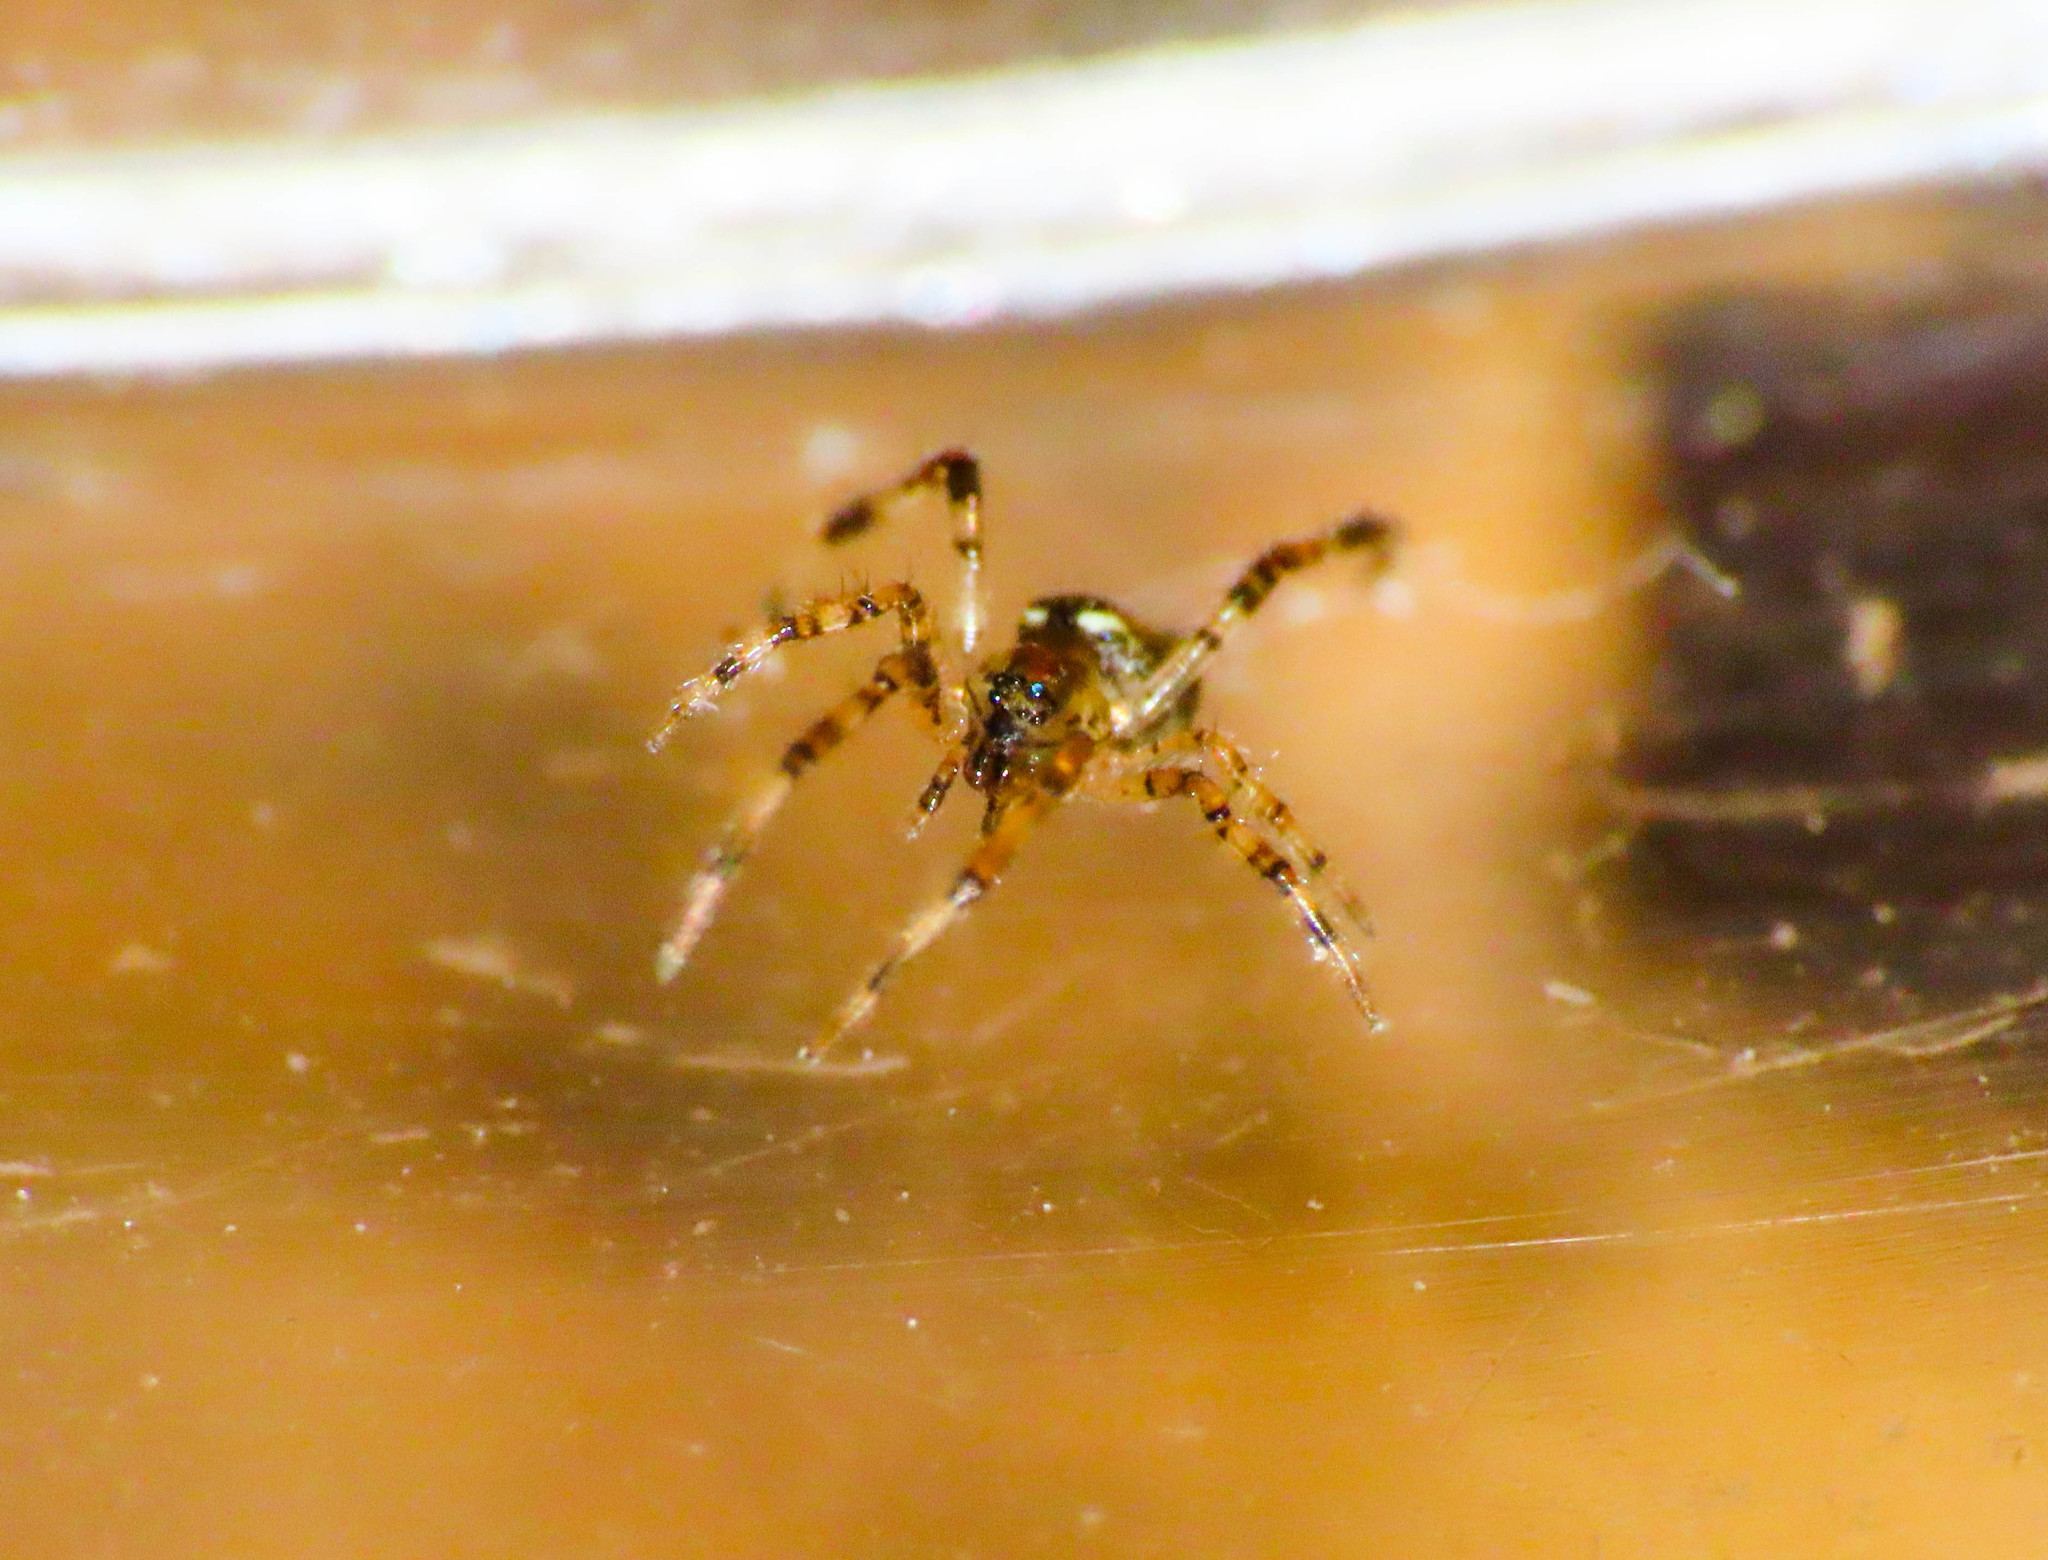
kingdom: Animalia
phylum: Arthropoda
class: Arachnida
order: Araneae
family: Theridiidae
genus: Episinus
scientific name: Episinus maculipes
